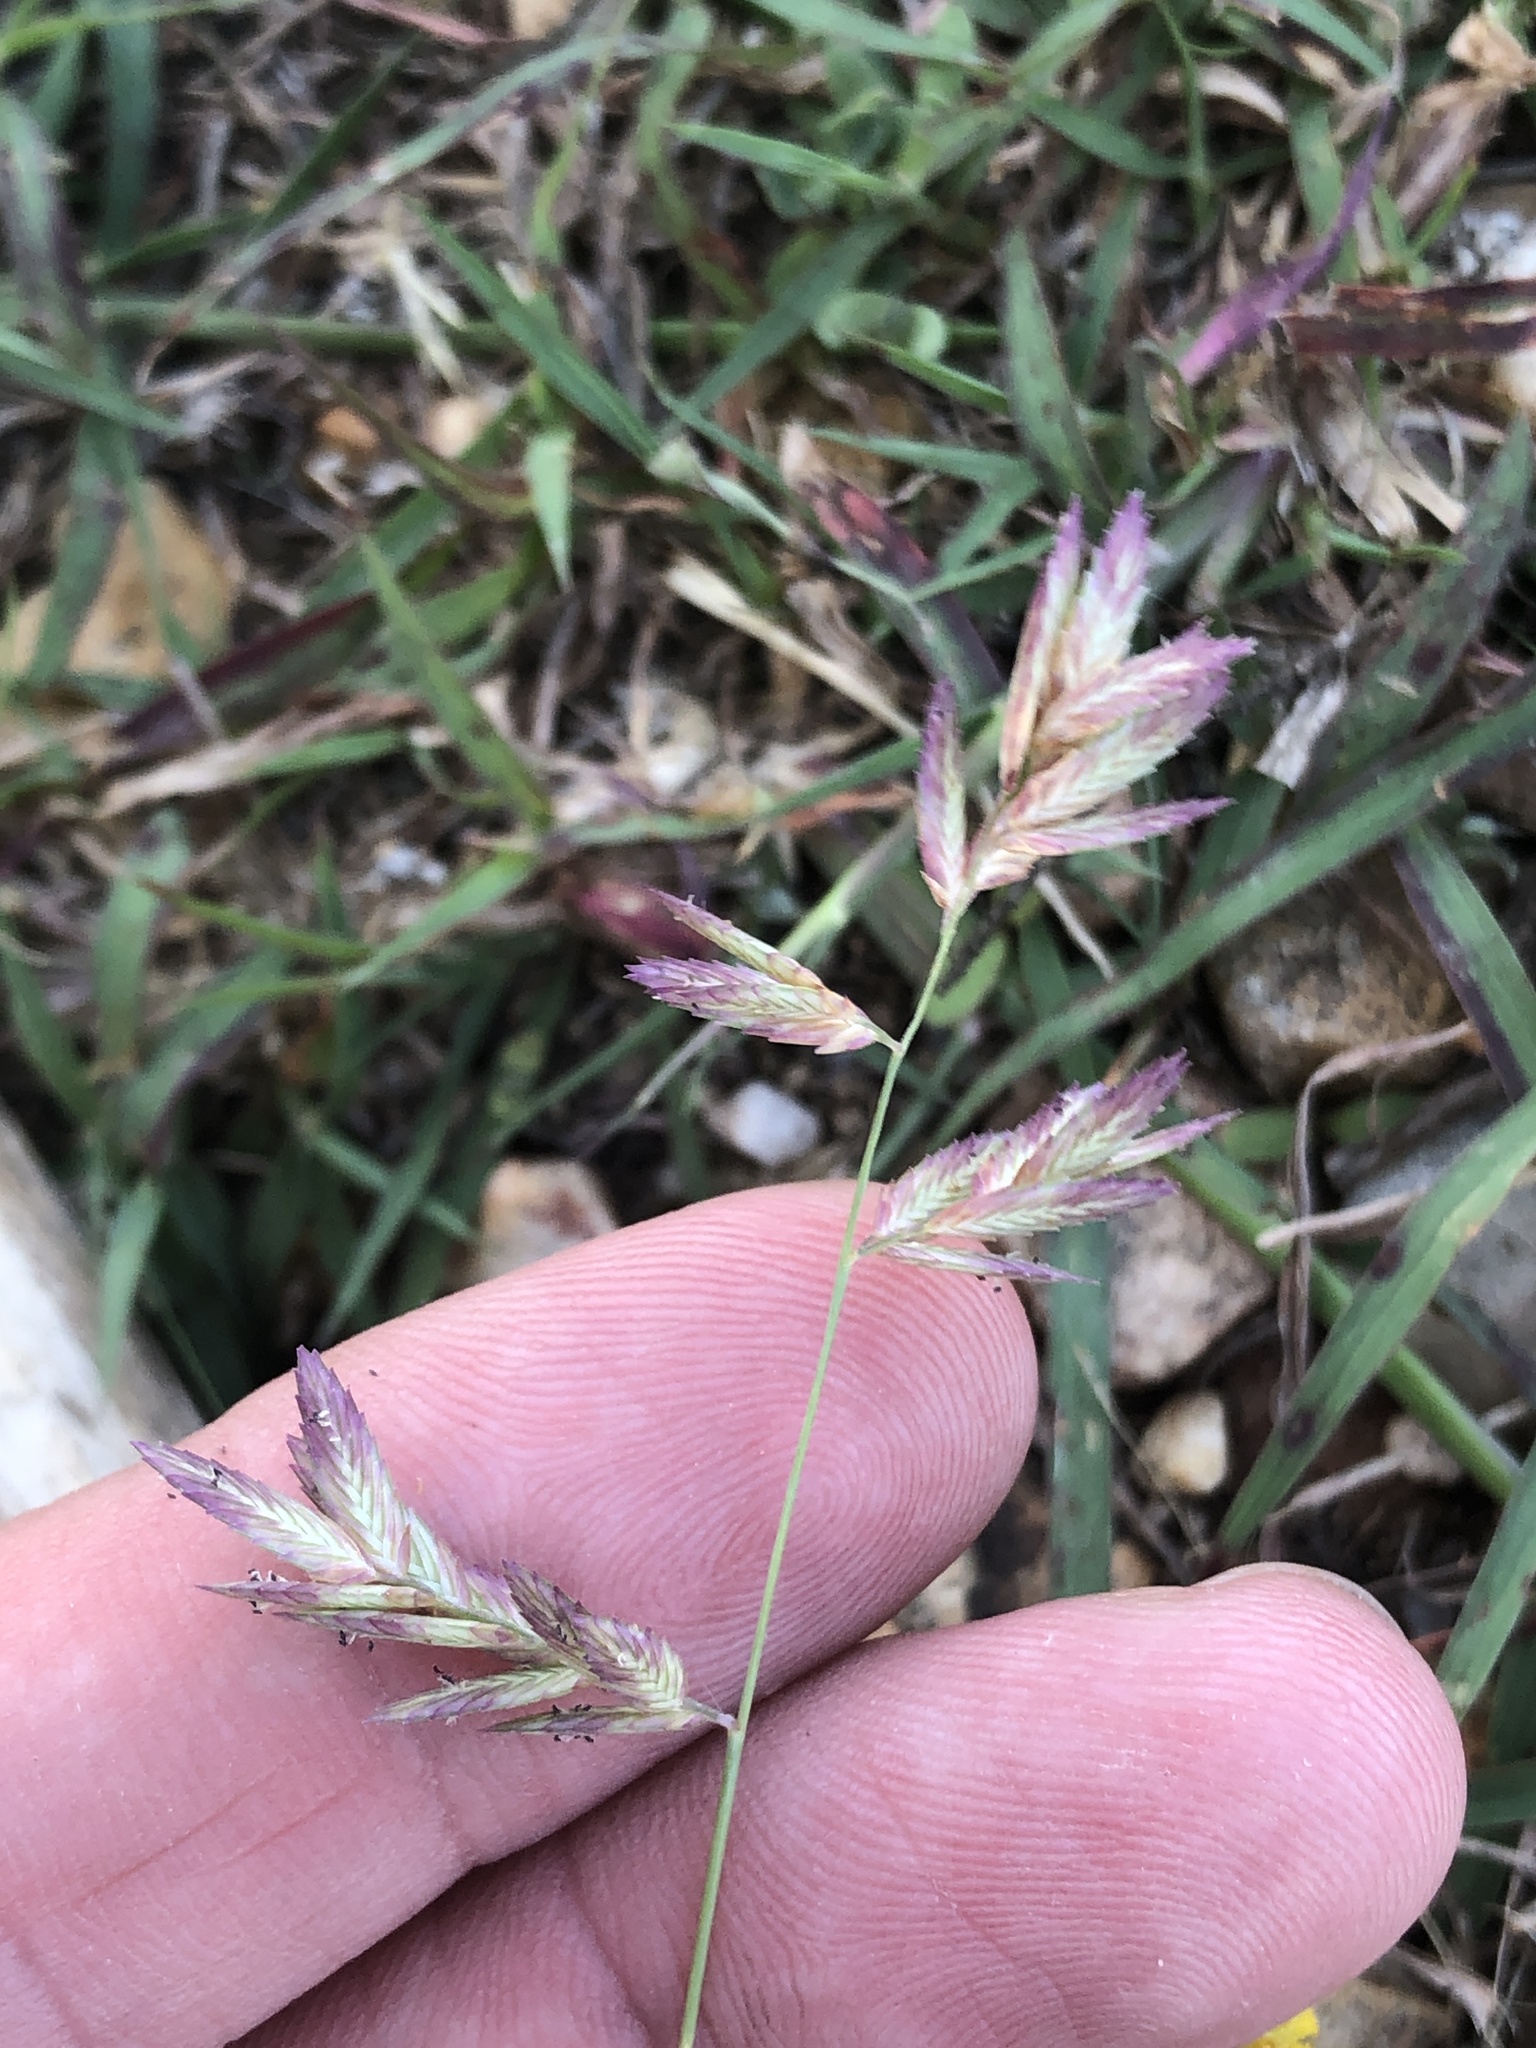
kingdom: Plantae
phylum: Tracheophyta
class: Liliopsida
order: Poales
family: Poaceae
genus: Eragrostis
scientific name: Eragrostis secundiflora
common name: Red love grass
